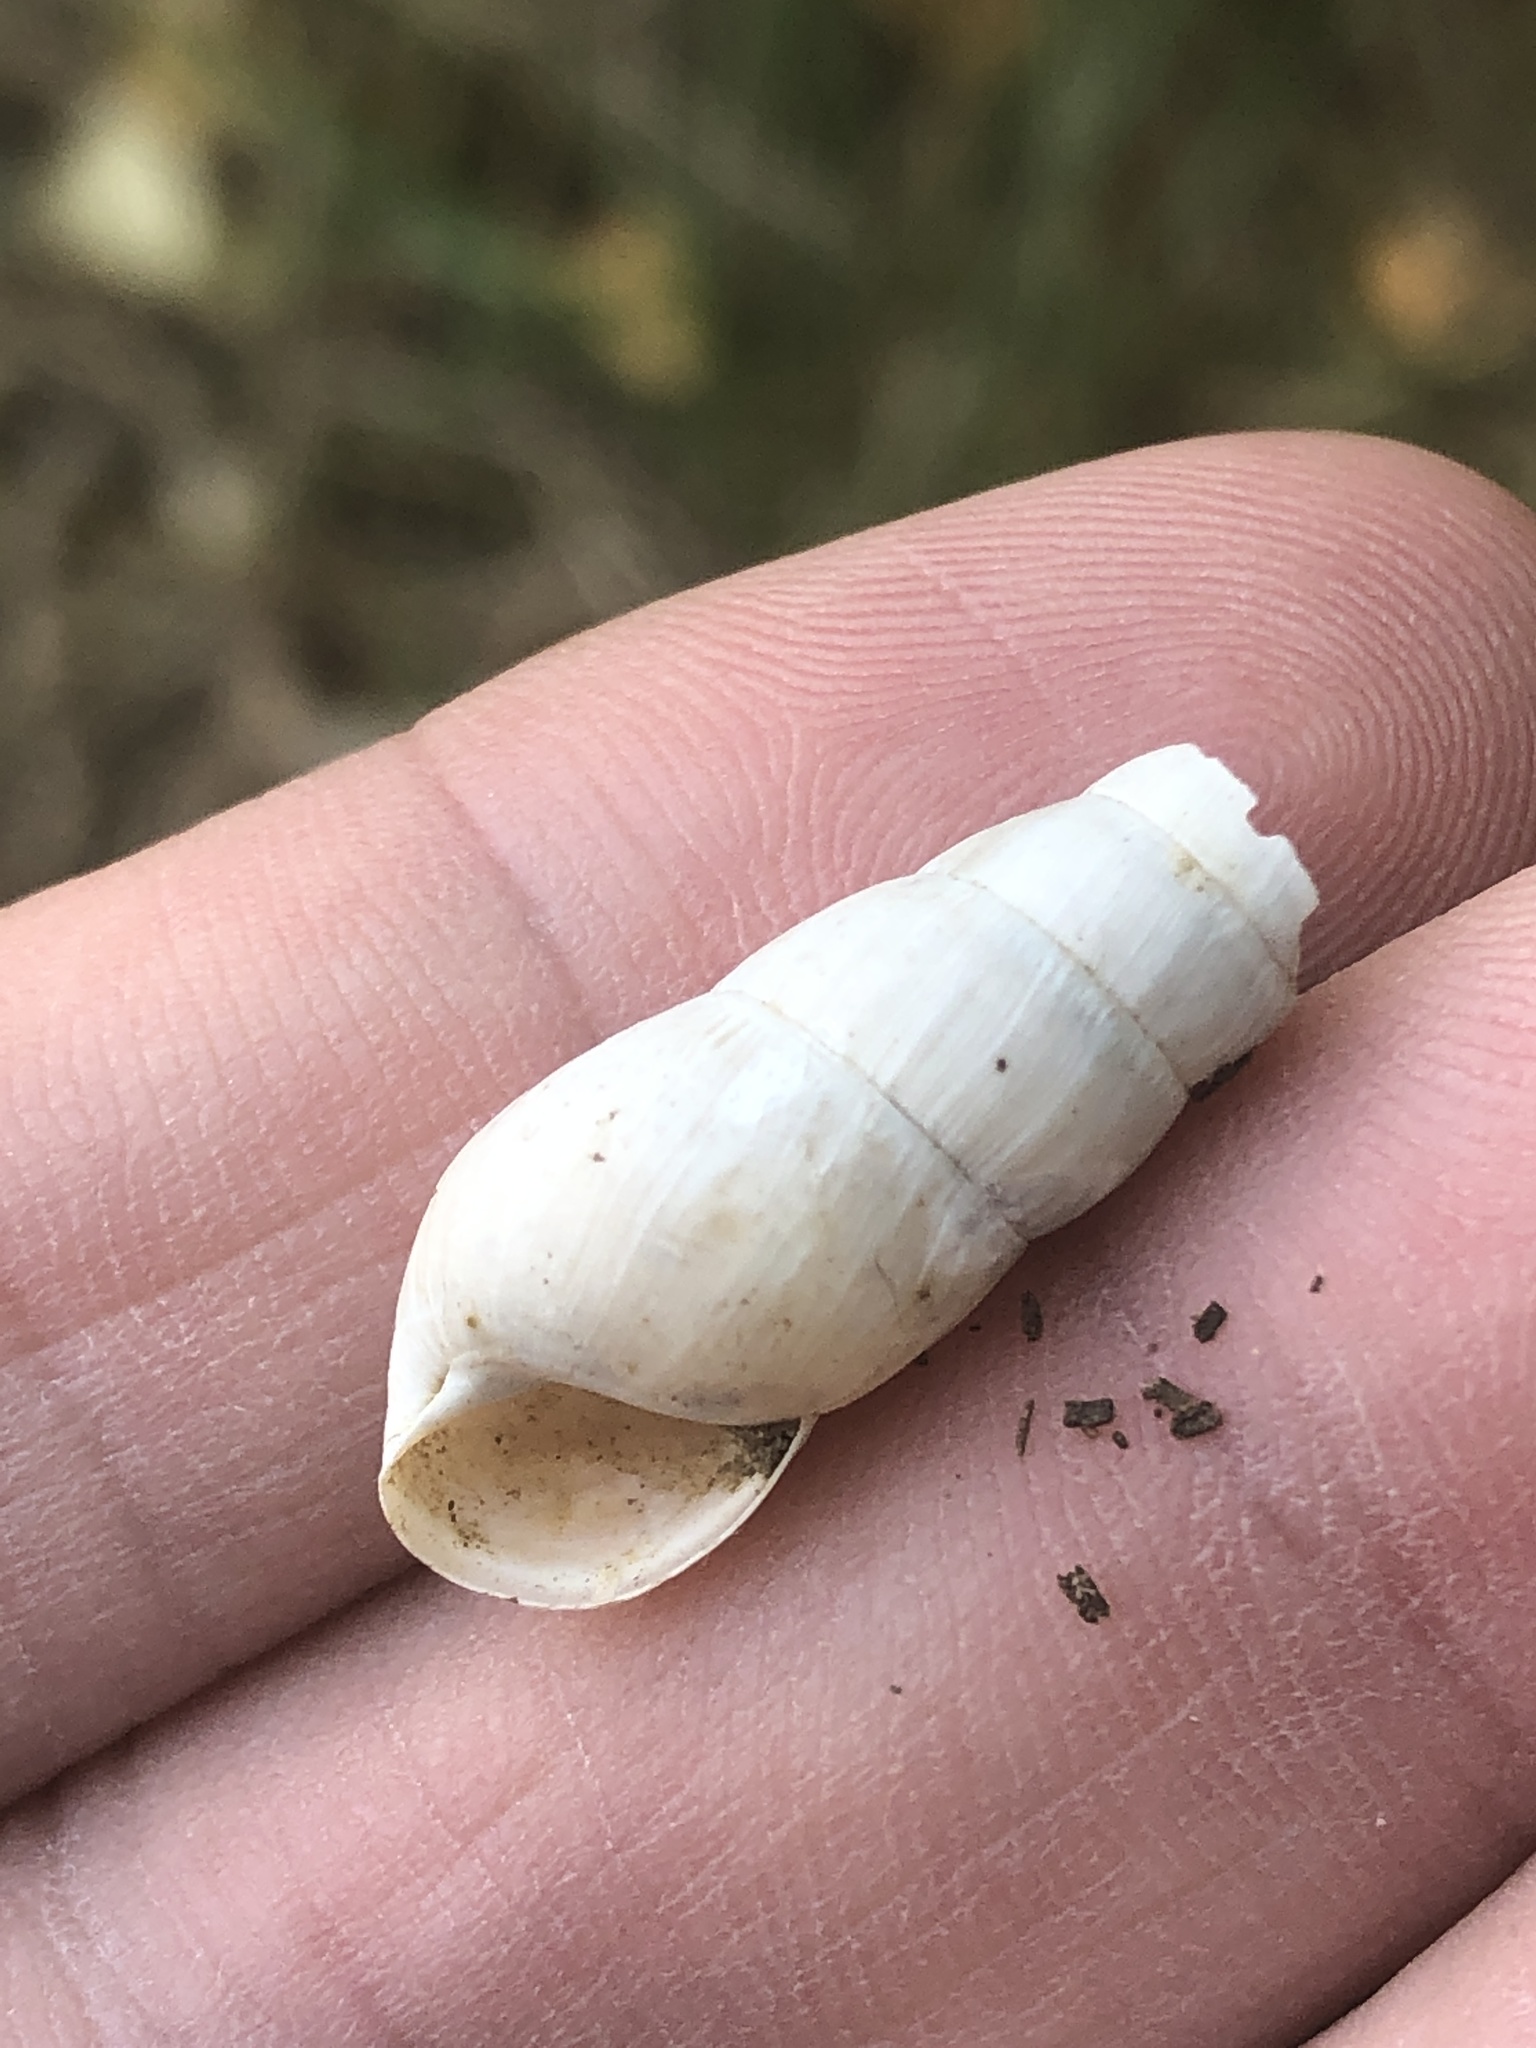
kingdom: Animalia
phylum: Mollusca
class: Gastropoda
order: Stylommatophora
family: Achatinidae
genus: Rumina
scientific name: Rumina decollata
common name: Decollate snail
